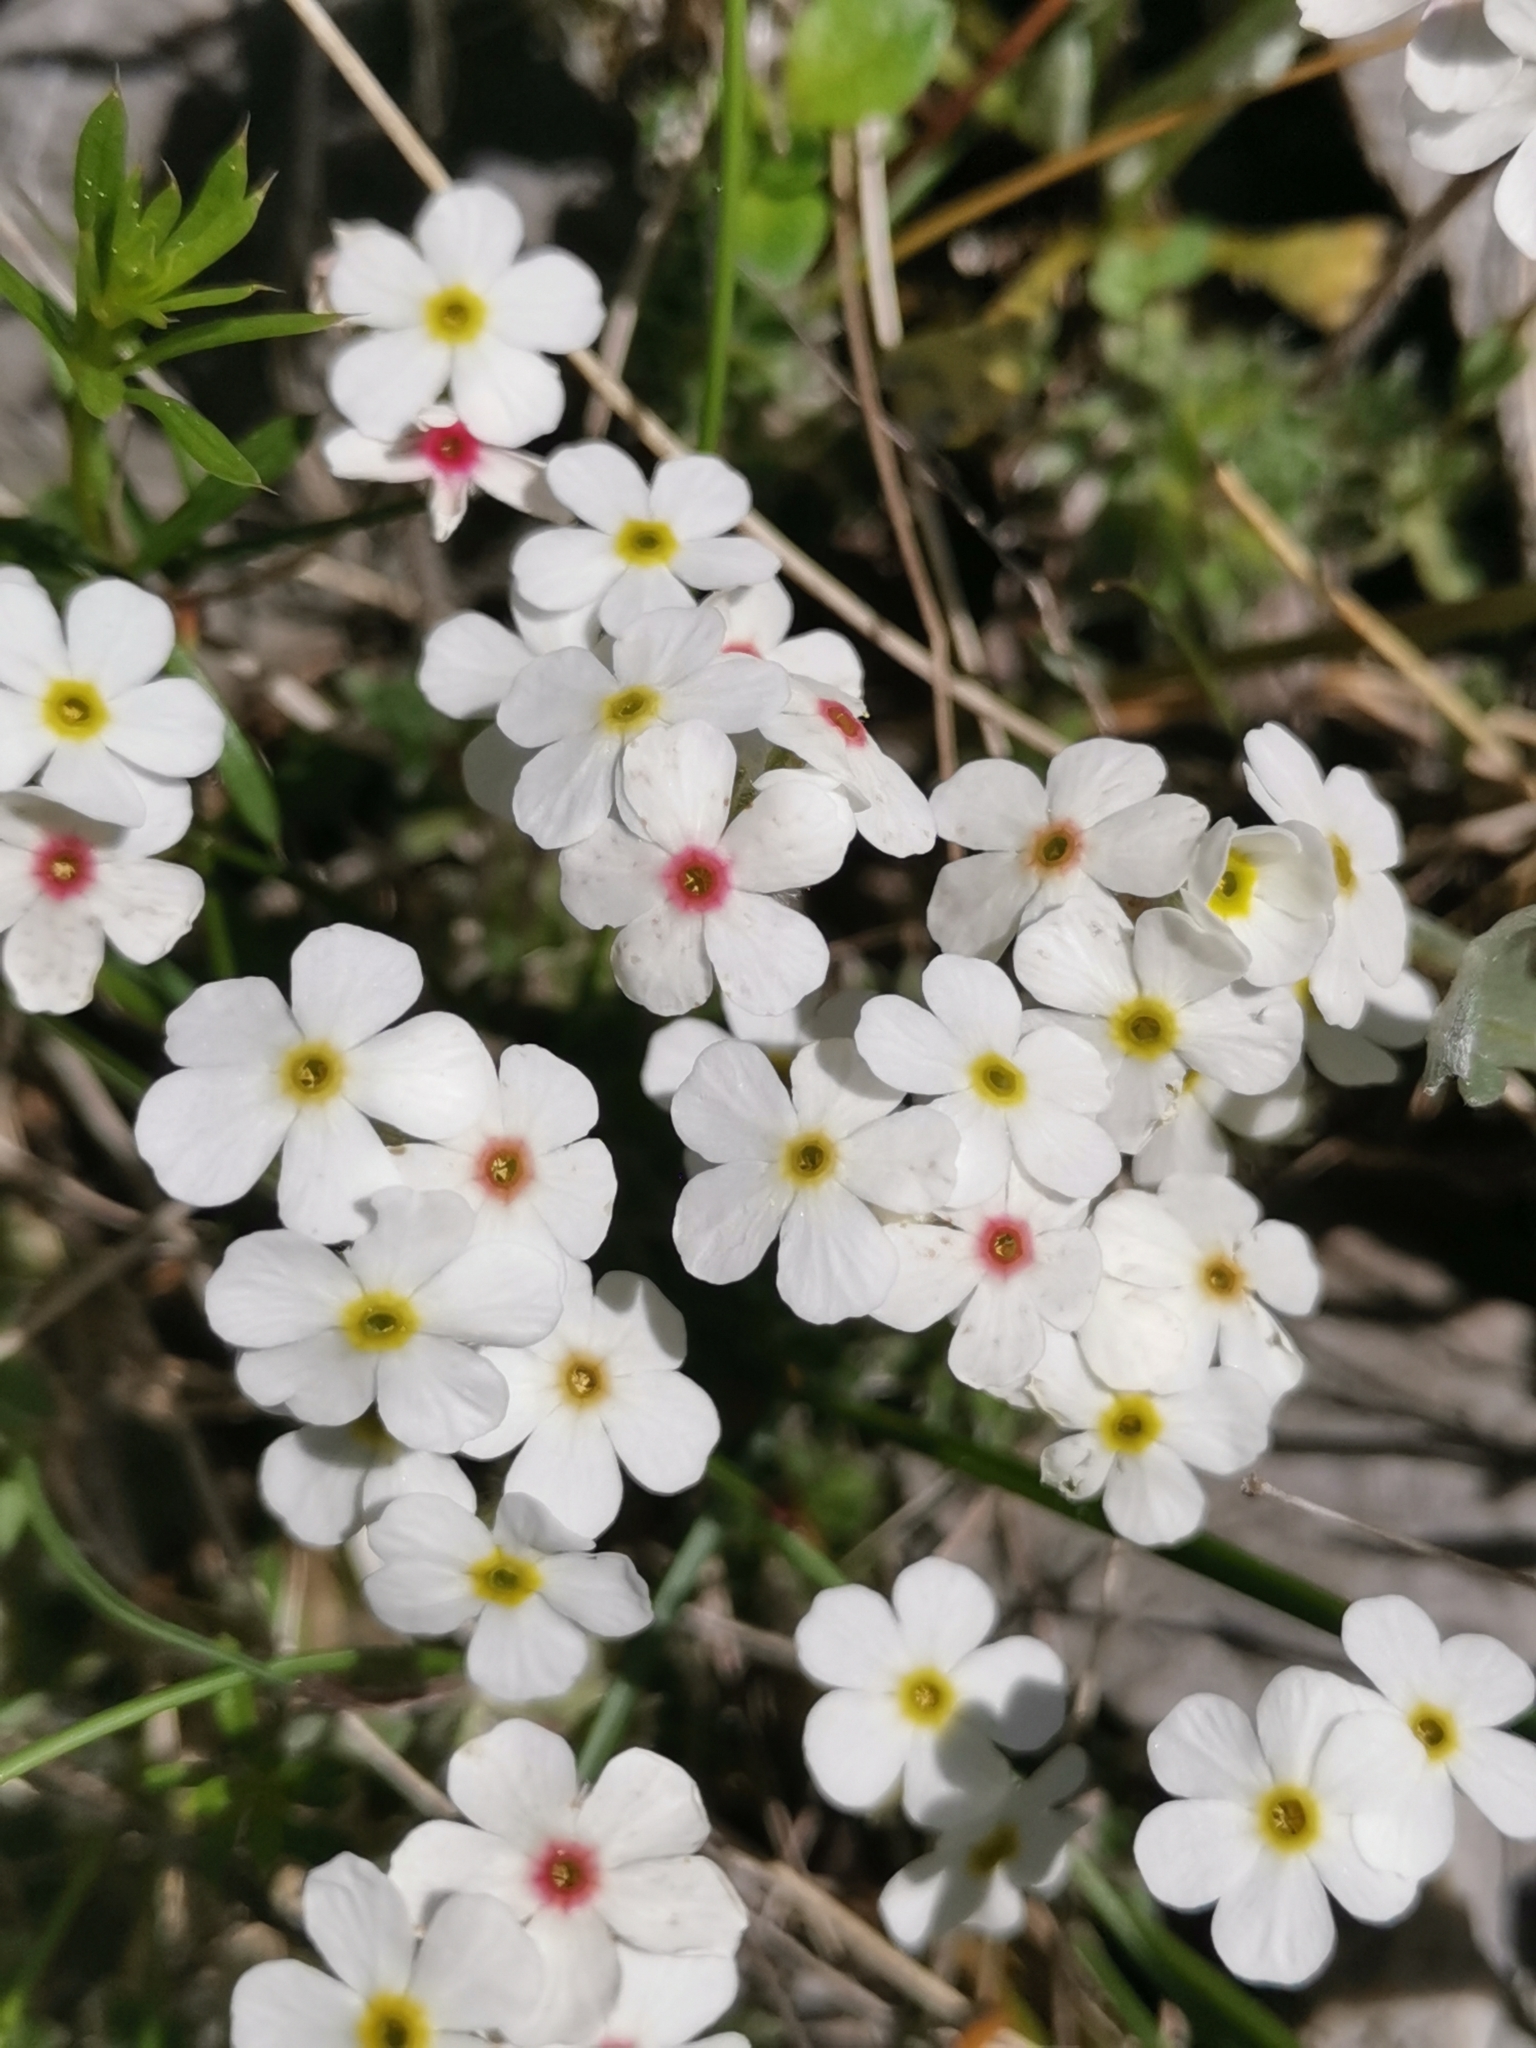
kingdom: Plantae
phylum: Tracheophyta
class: Magnoliopsida
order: Ericales
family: Primulaceae
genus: Androsace
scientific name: Androsace chamaejasme
